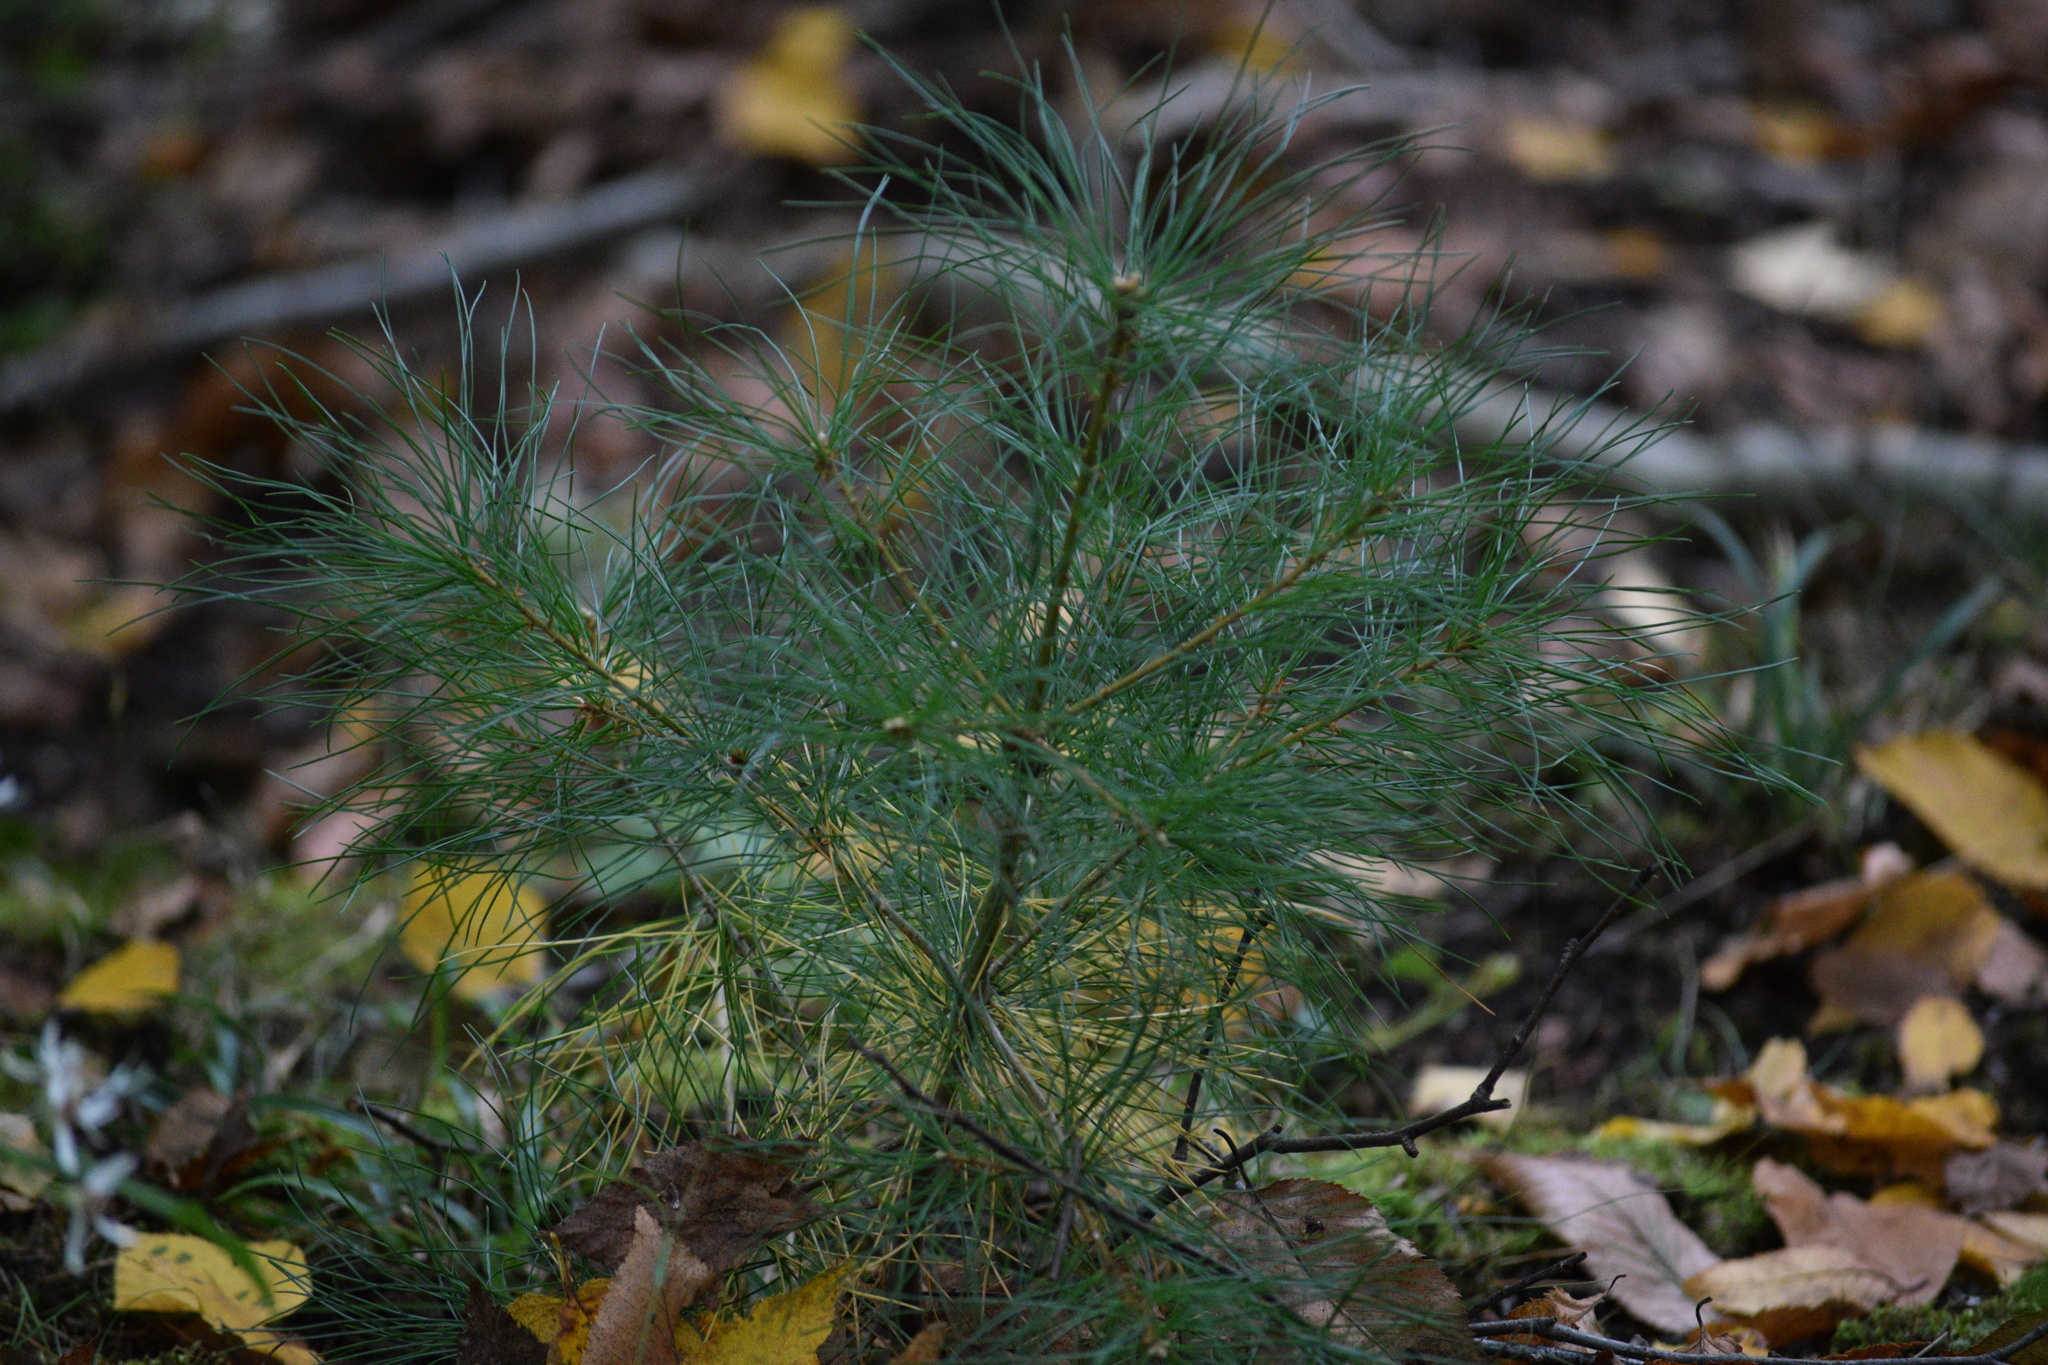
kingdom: Plantae
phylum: Tracheophyta
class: Pinopsida
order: Pinales
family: Pinaceae
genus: Pinus
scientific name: Pinus strobus
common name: Weymouth pine
